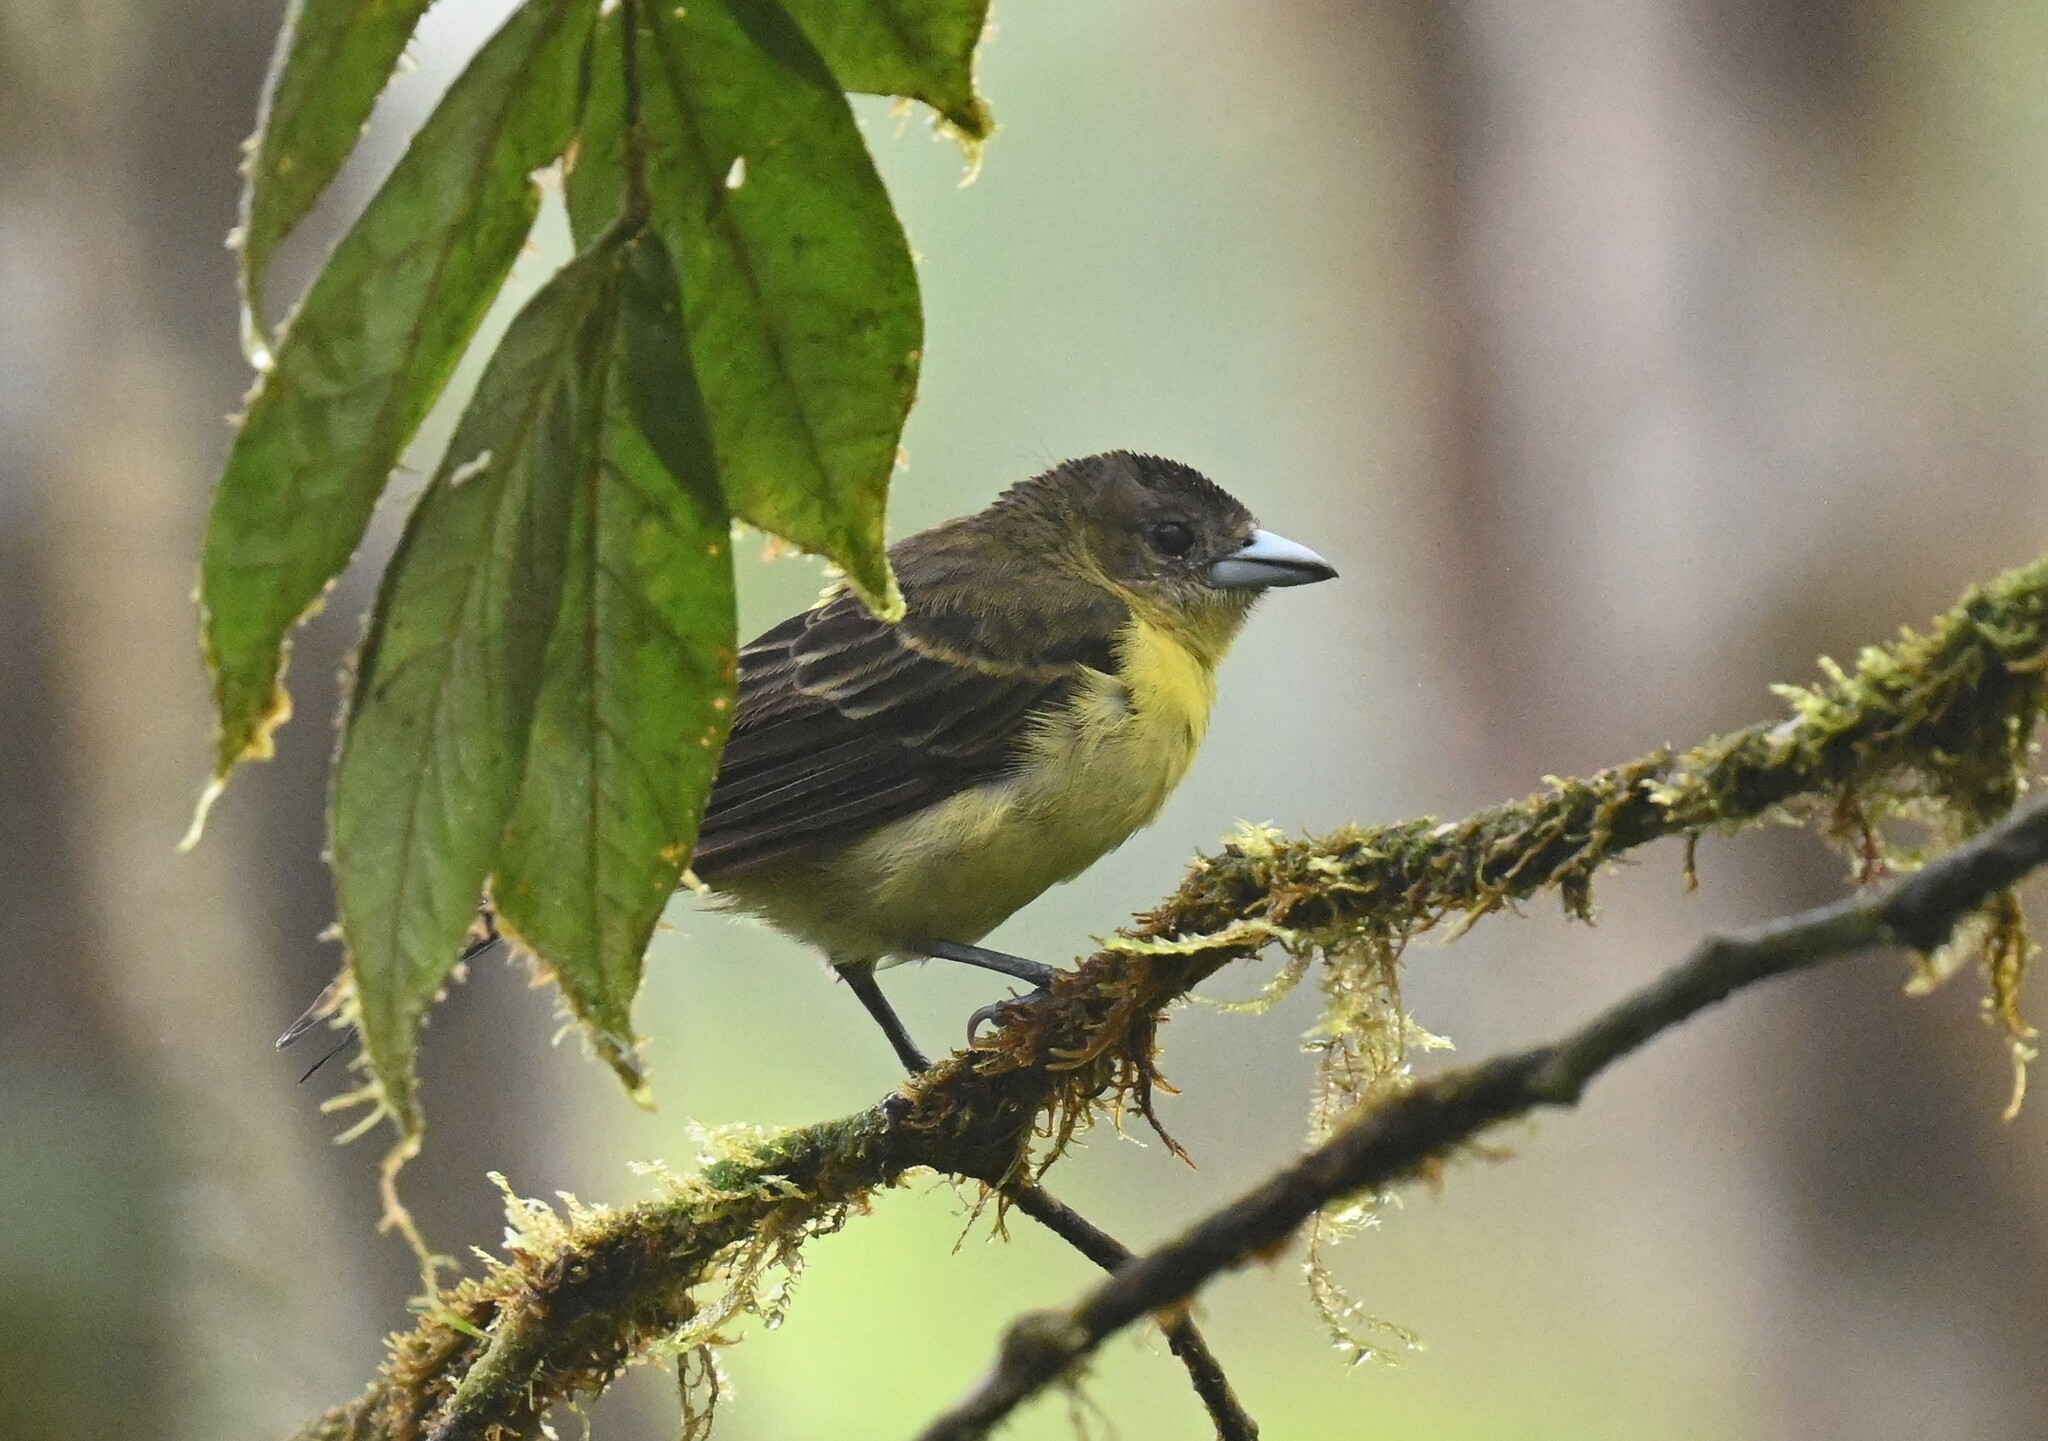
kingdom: Animalia
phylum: Chordata
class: Aves
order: Passeriformes
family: Thraupidae
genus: Ramphocelus
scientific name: Ramphocelus flammigerus
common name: Flame-rumped tanager
